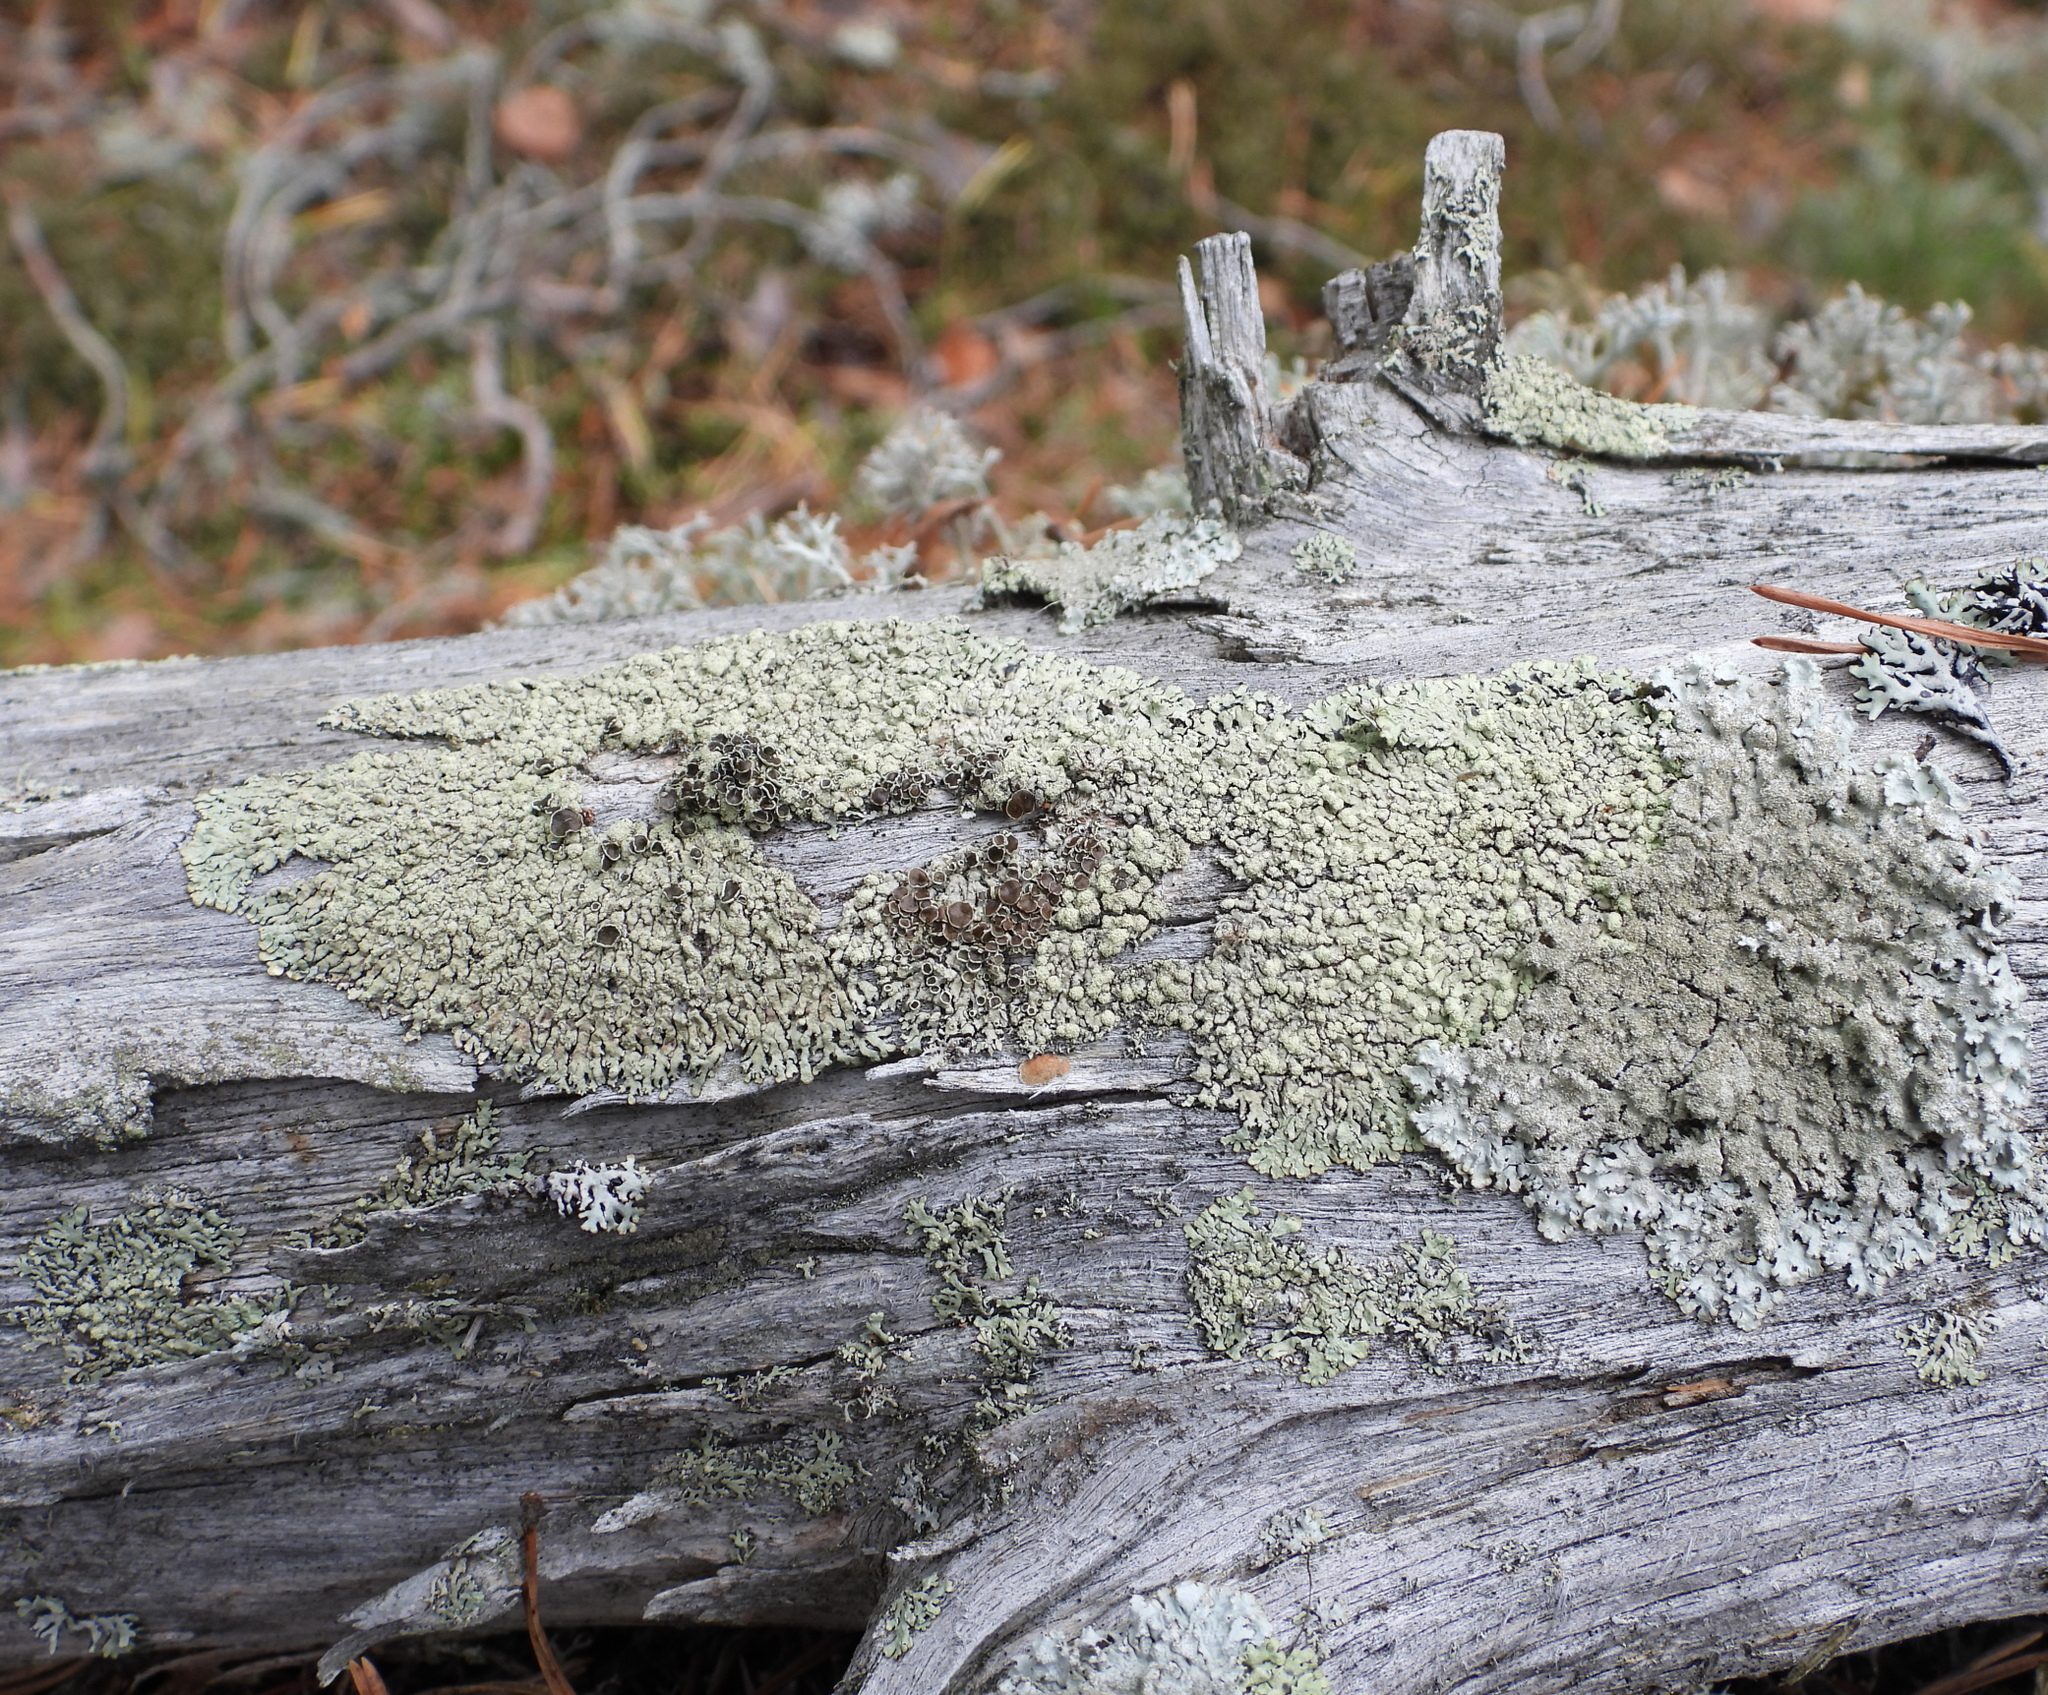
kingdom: Fungi
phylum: Ascomycota
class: Lecanoromycetes
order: Lecanorales
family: Parmeliaceae
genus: Parmeliopsis
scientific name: Parmeliopsis ambigua
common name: Green starburst lichen
